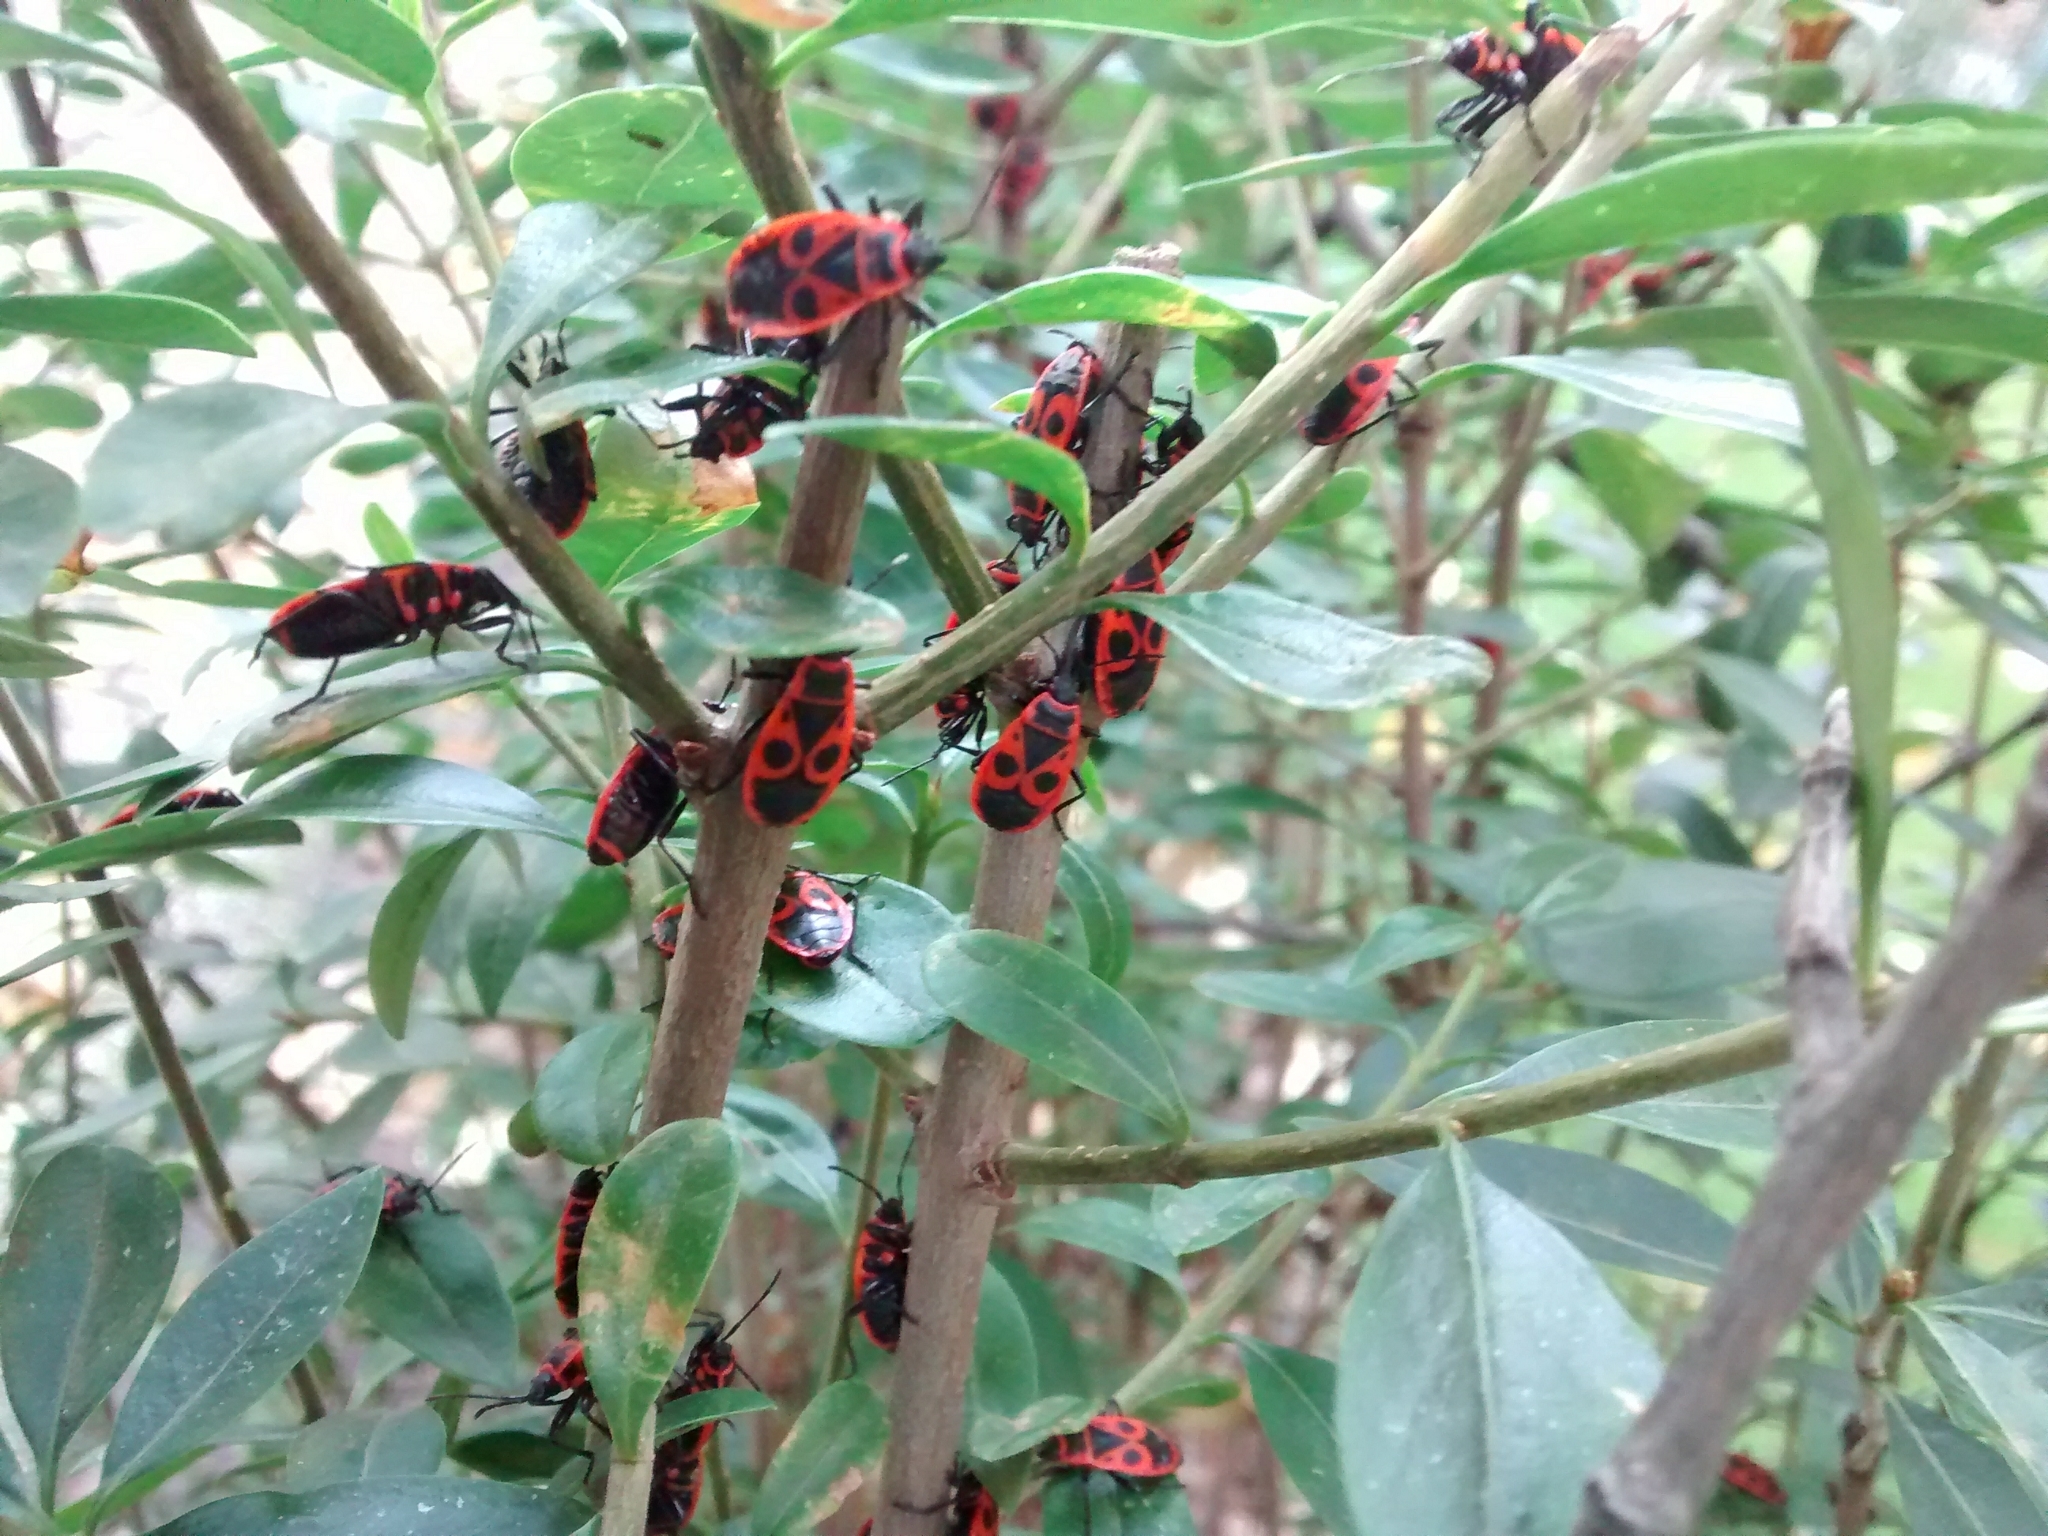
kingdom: Animalia
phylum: Arthropoda
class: Insecta
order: Hemiptera
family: Pyrrhocoridae
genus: Pyrrhocoris
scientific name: Pyrrhocoris apterus
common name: Firebug
